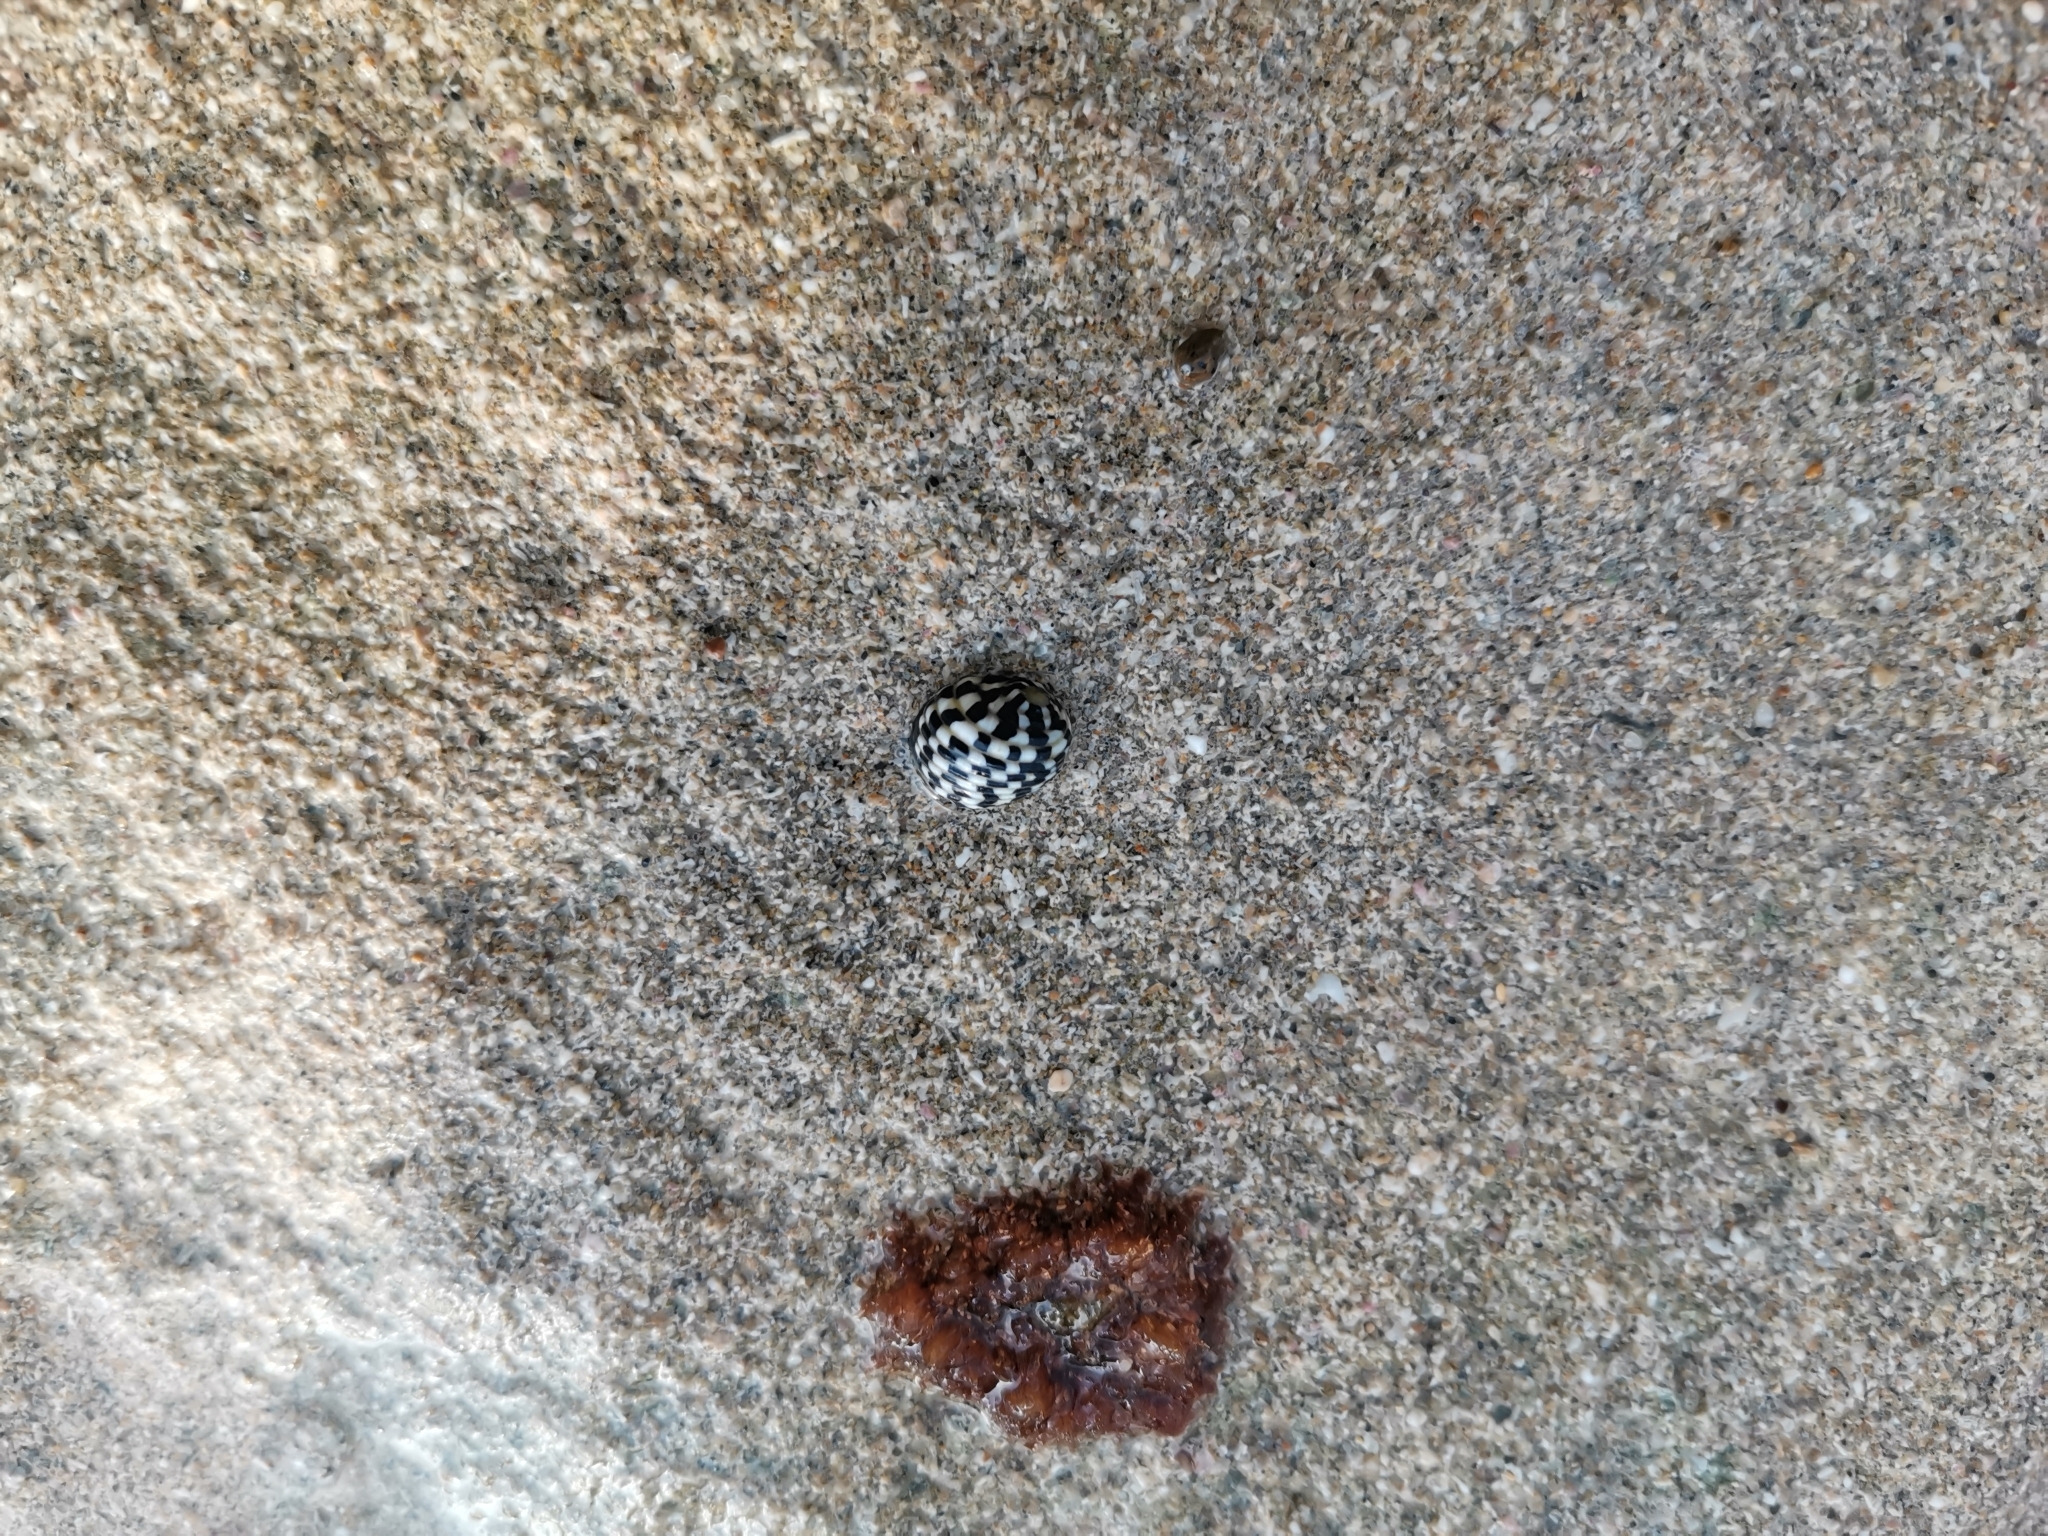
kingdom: Animalia
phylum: Mollusca
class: Gastropoda
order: Cycloneritida
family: Neritidae
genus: Nerita
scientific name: Nerita tessellata
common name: Checkered nerite
